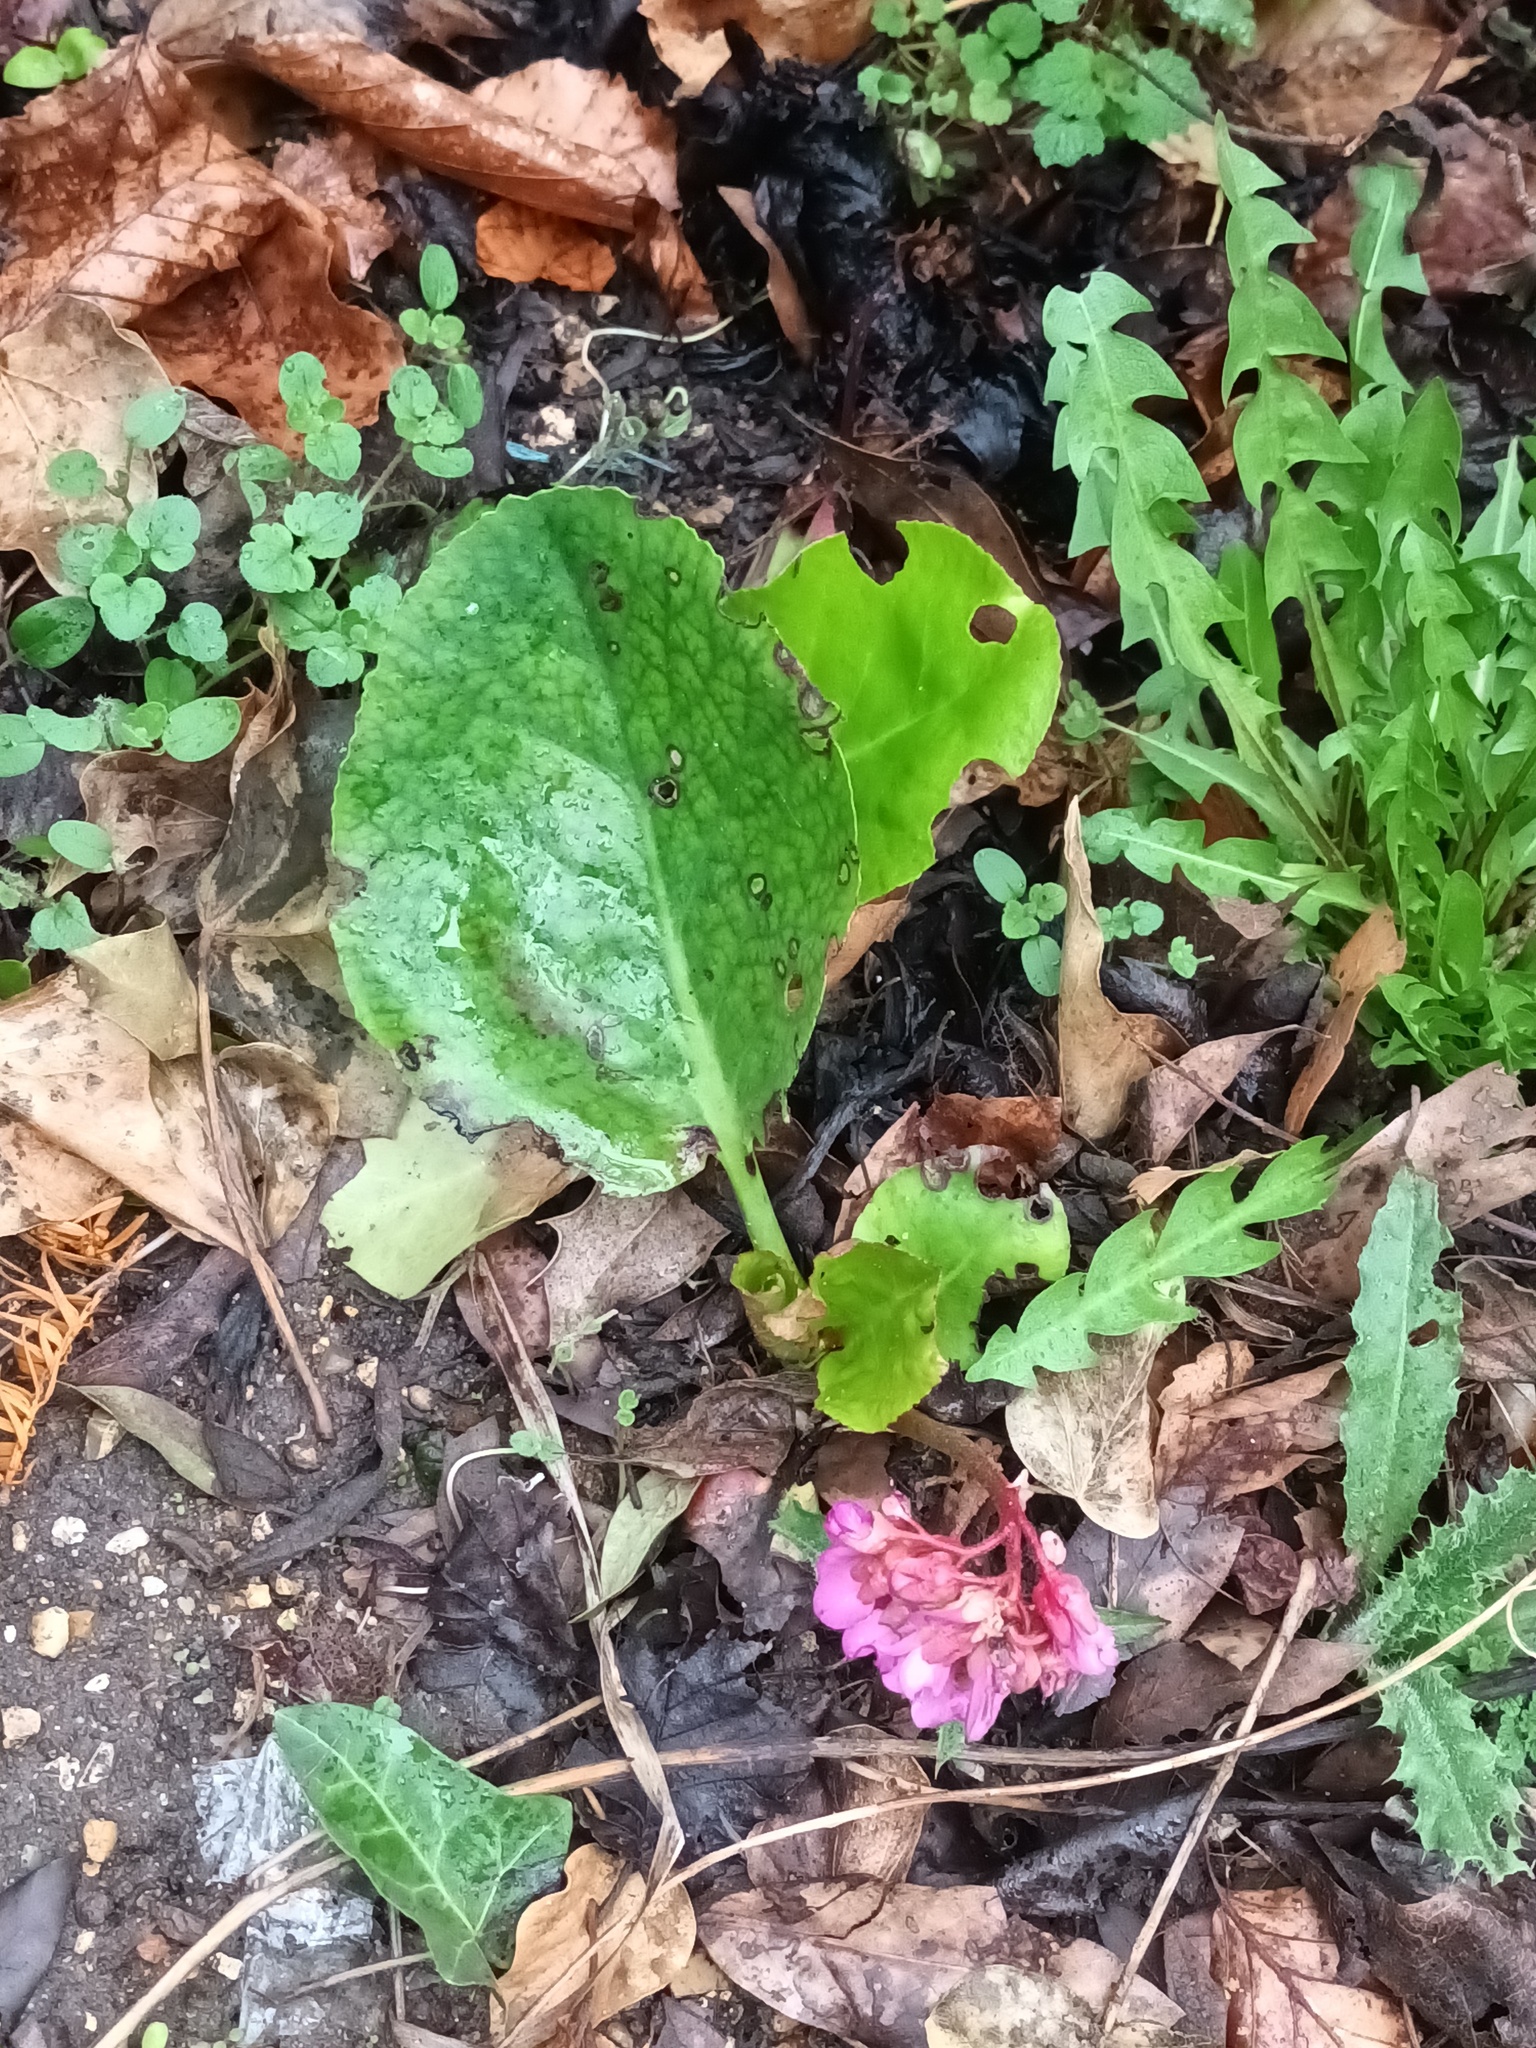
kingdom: Plantae
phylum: Tracheophyta
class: Magnoliopsida
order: Saxifragales
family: Saxifragaceae
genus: Bergenia
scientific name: Bergenia crassifolia
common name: Elephant-ears
